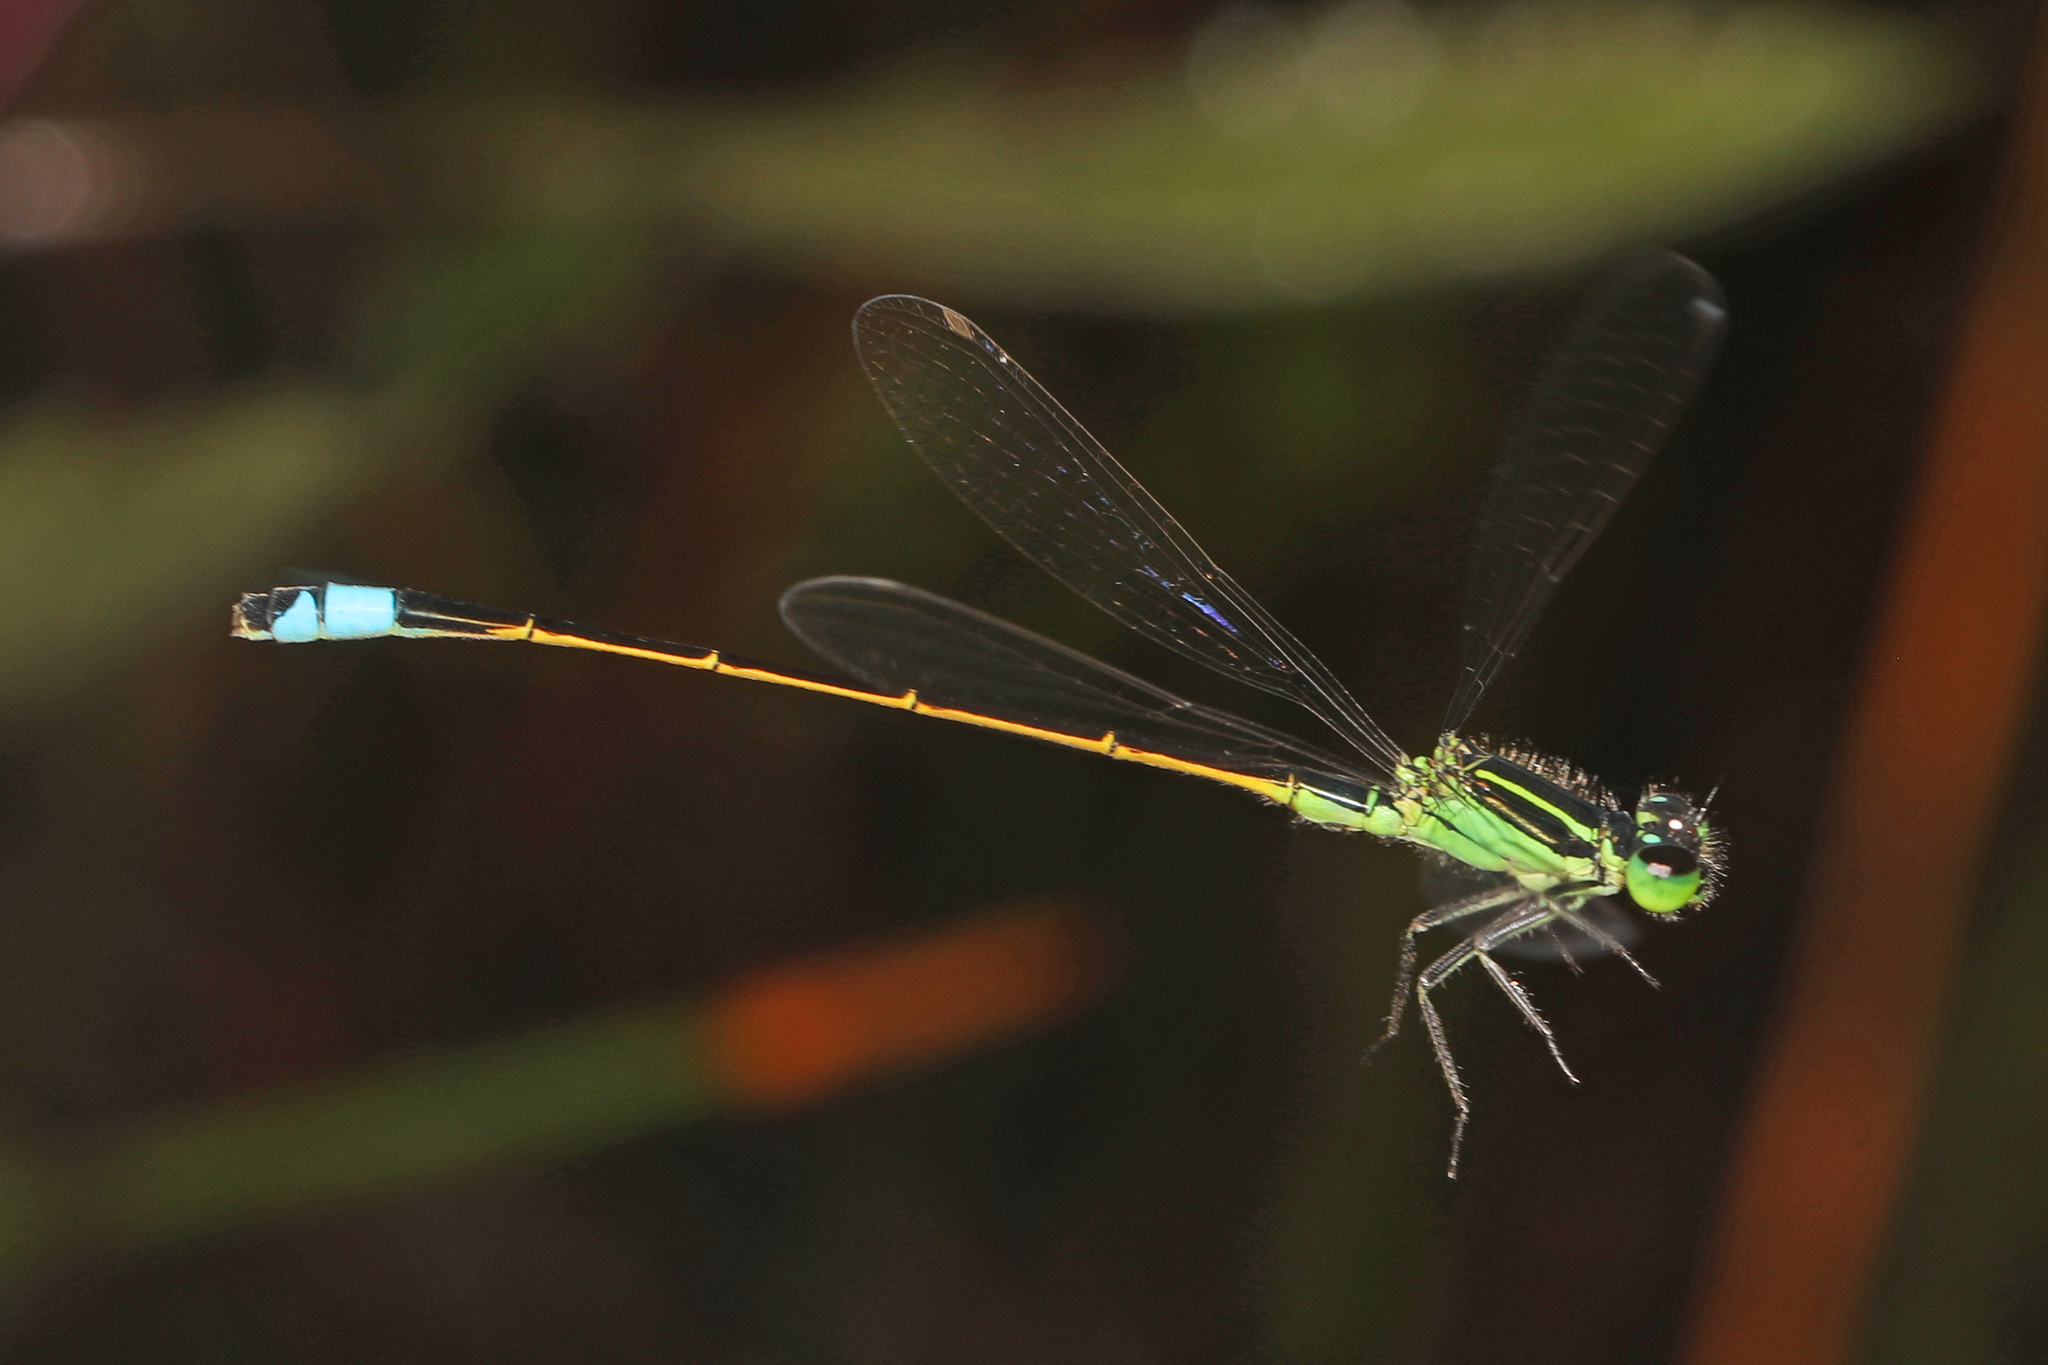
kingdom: Animalia
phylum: Arthropoda
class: Insecta
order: Odonata
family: Coenagrionidae
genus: Ischnura
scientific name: Ischnura ramburii
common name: Rambur's forktail
